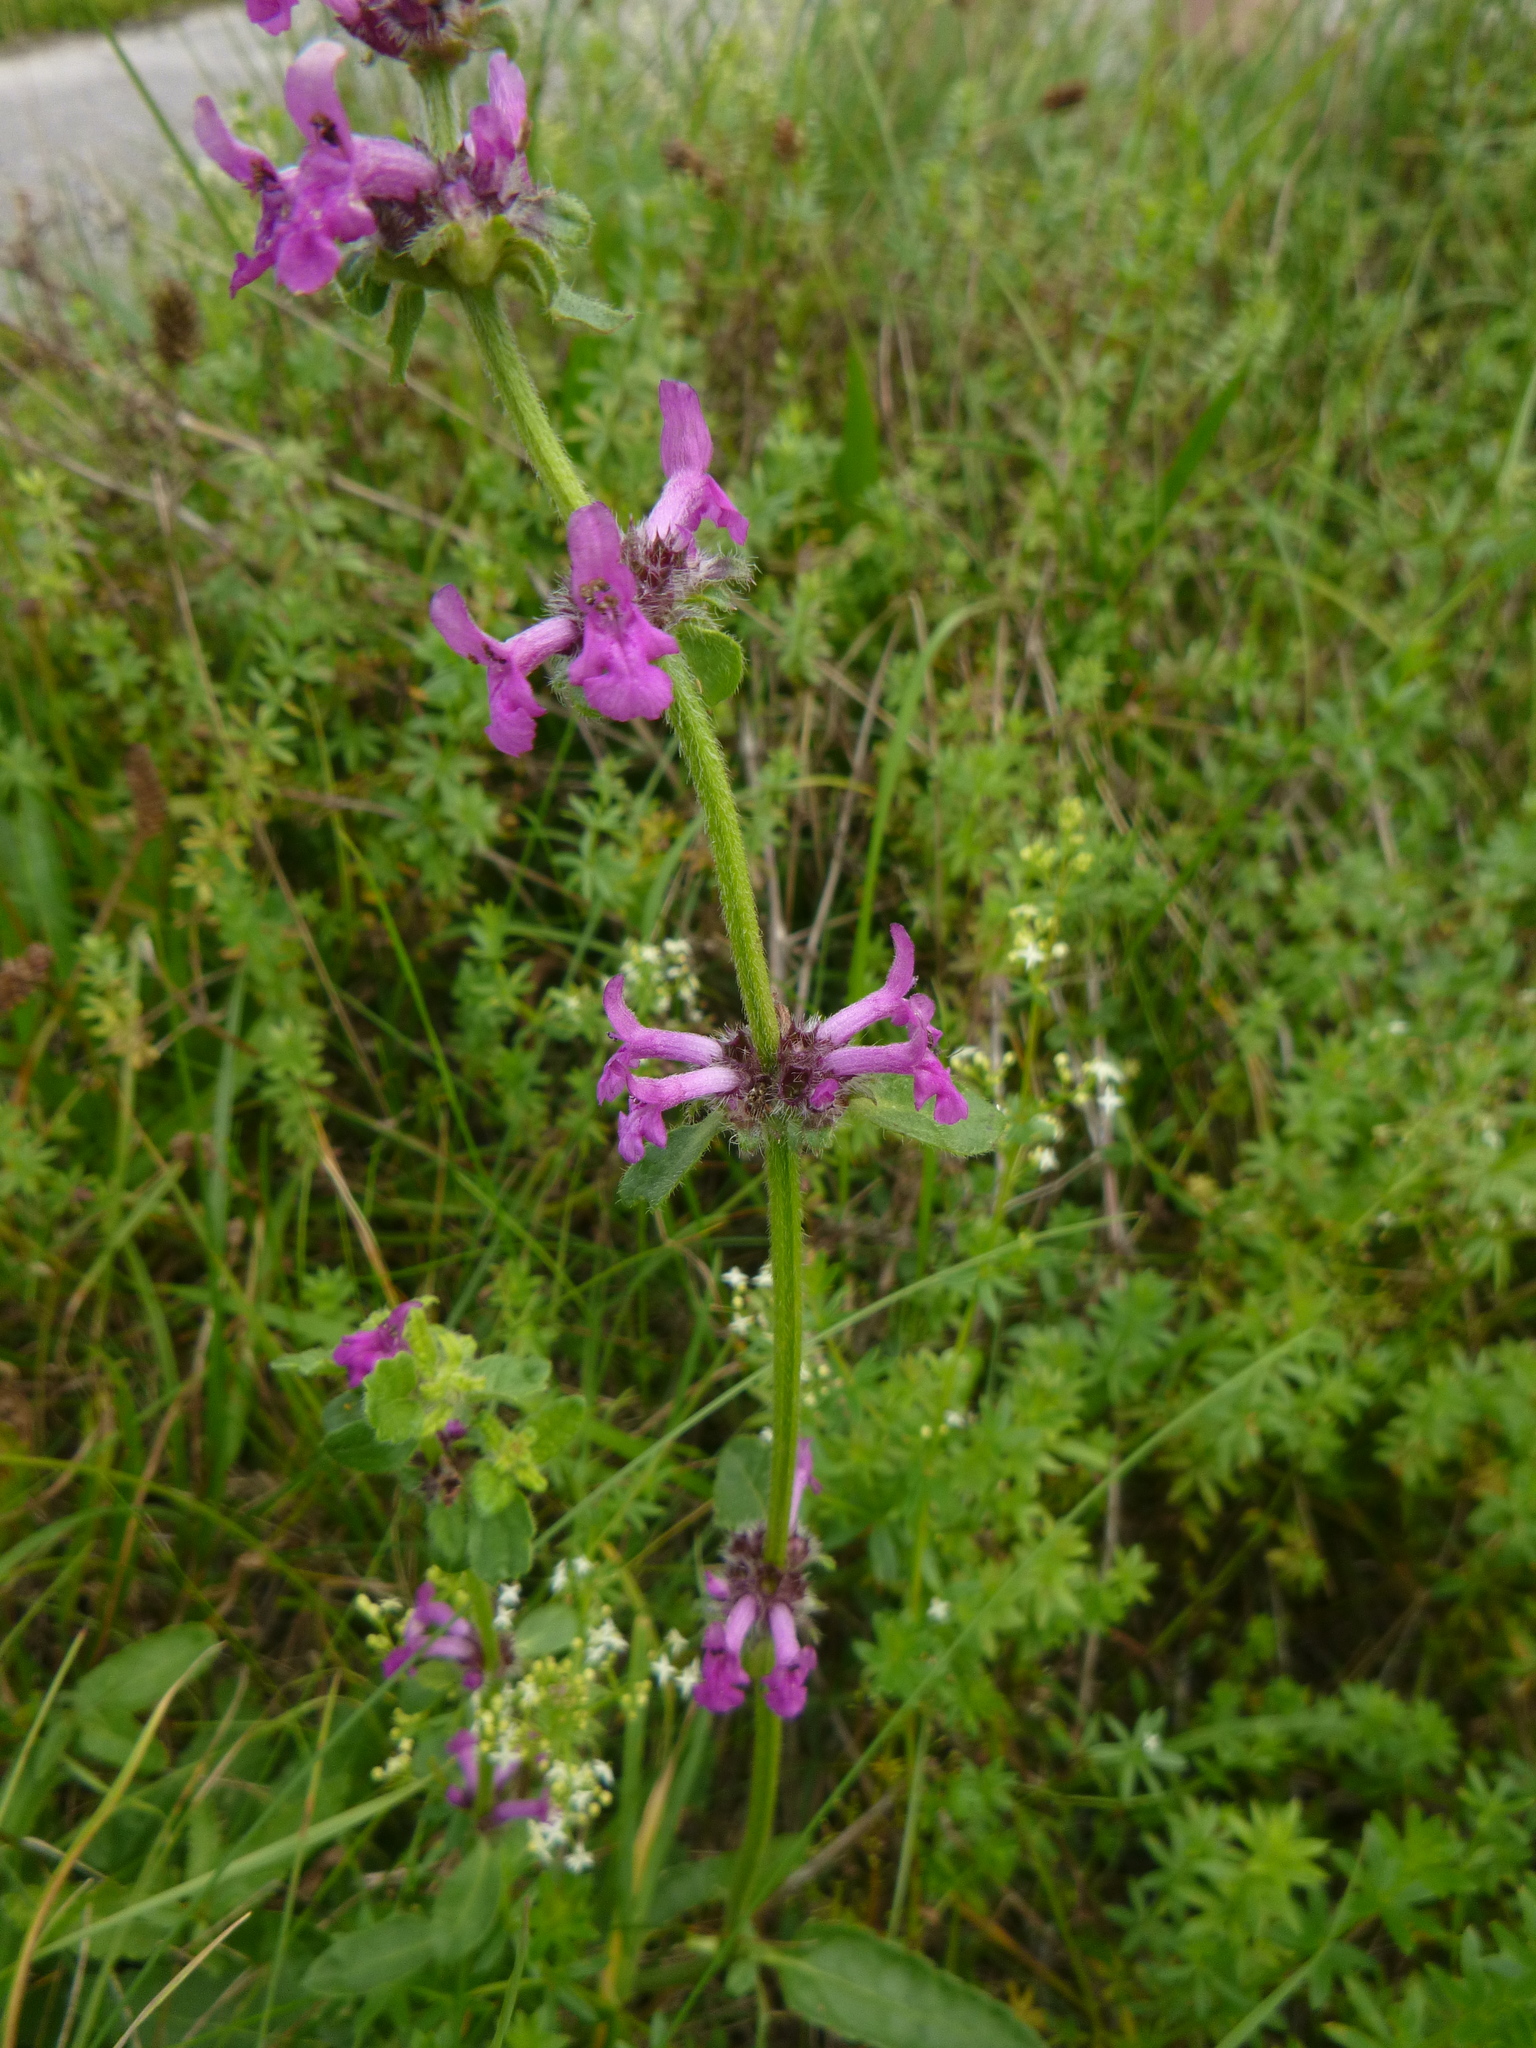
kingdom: Plantae
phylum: Tracheophyta
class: Magnoliopsida
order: Lamiales
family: Lamiaceae
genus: Betonica
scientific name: Betonica officinalis
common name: Bishop's-wort
